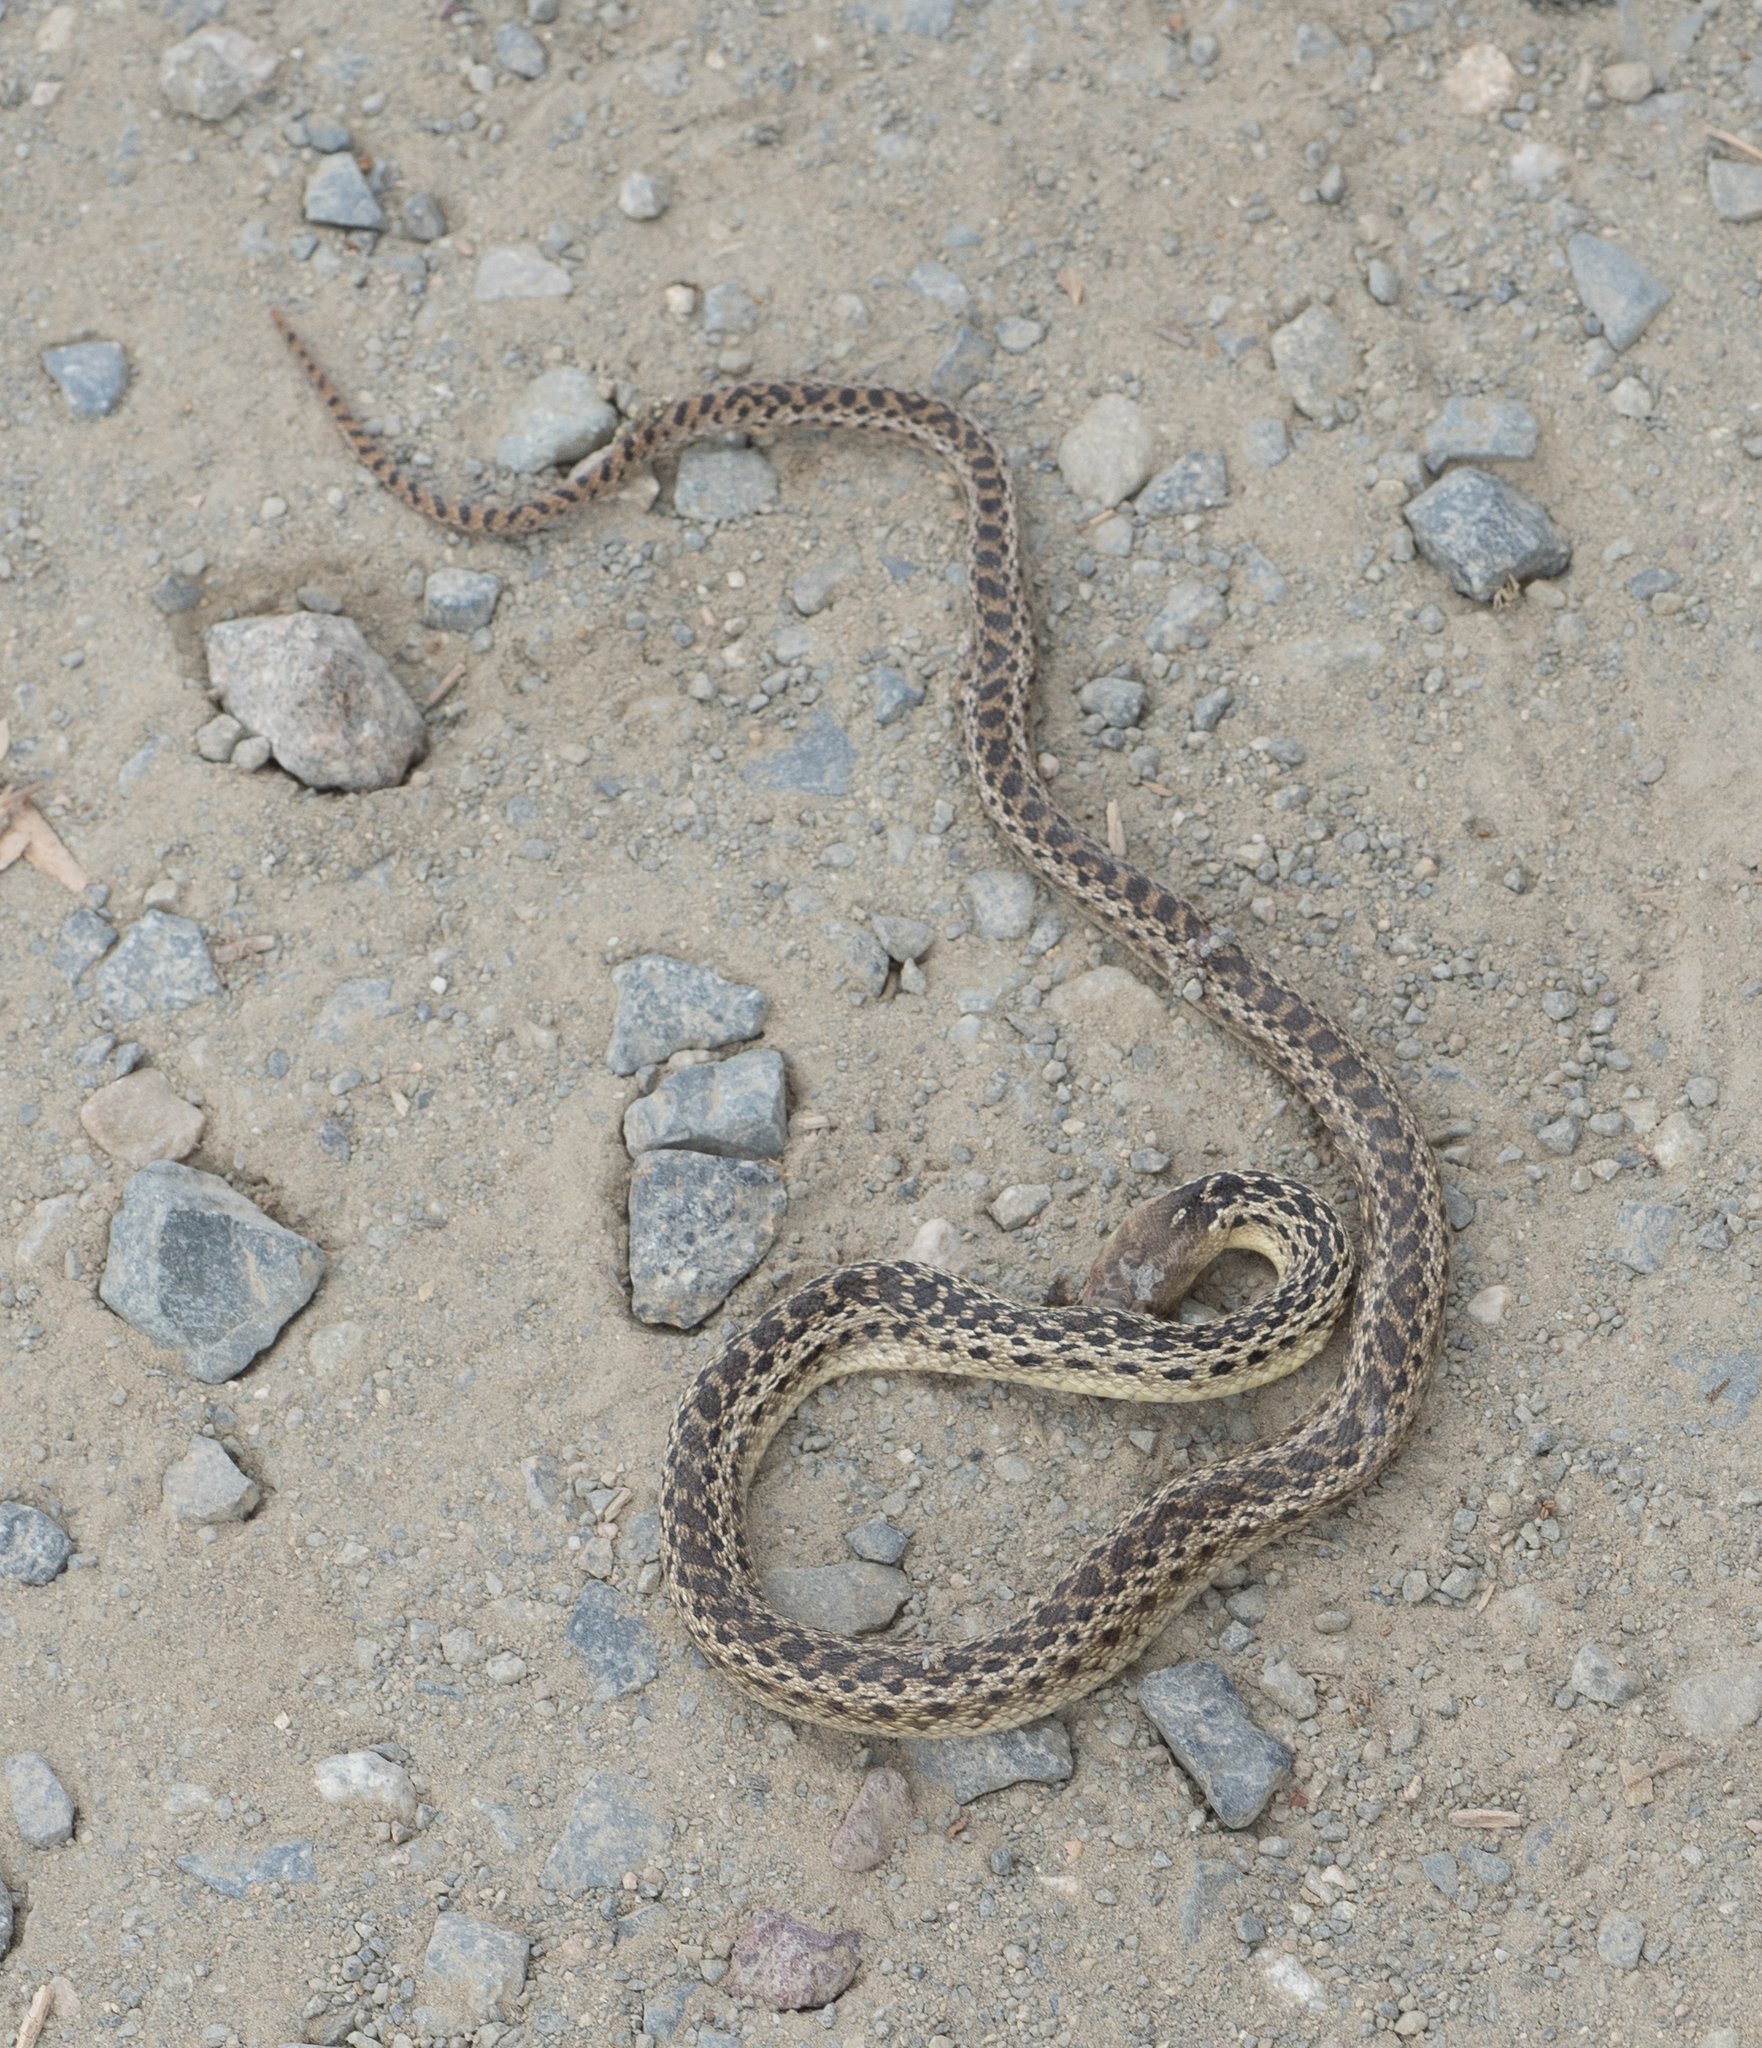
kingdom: Animalia
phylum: Chordata
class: Squamata
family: Colubridae
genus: Pituophis
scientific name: Pituophis catenifer
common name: Gopher snake
